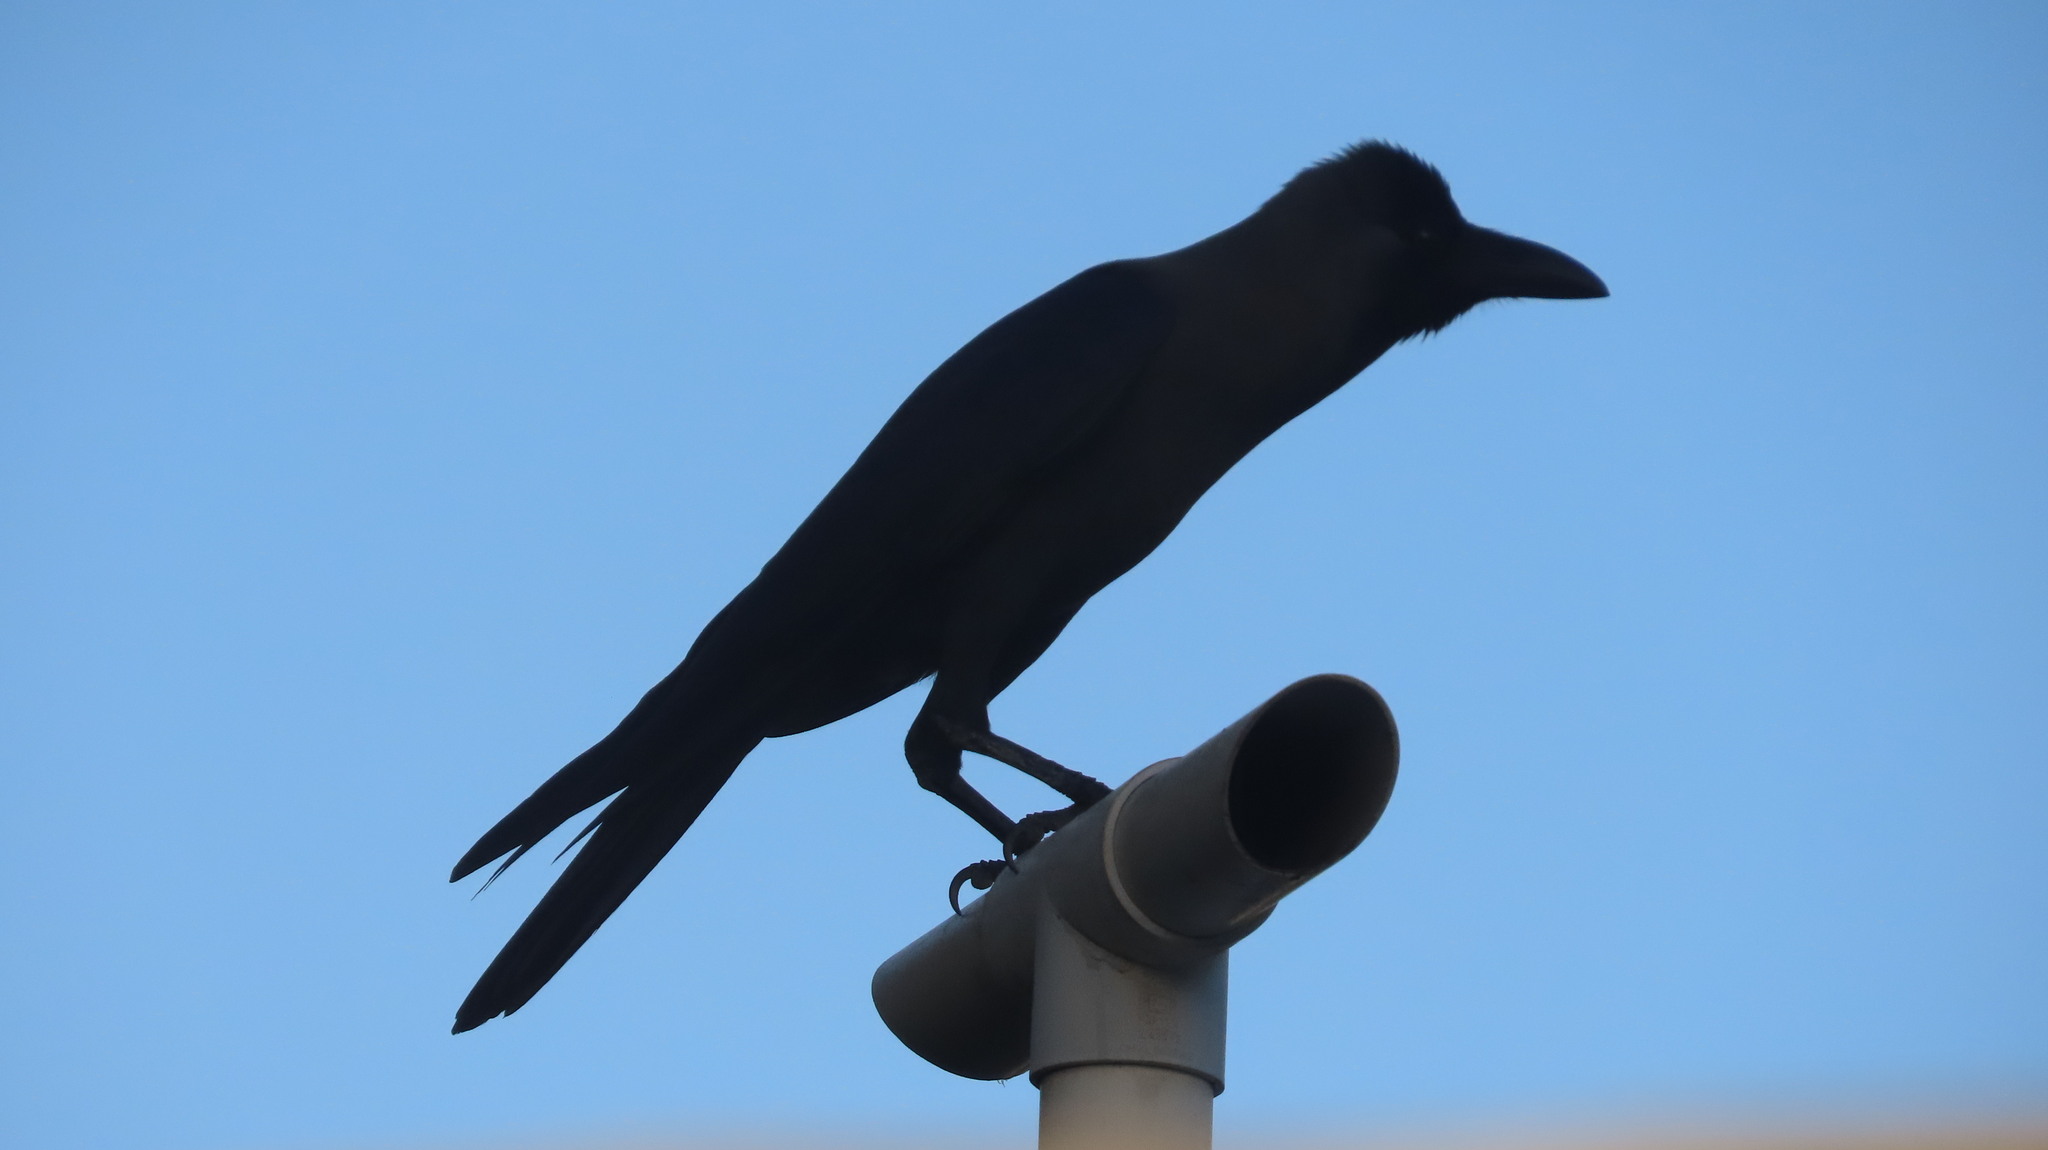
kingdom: Animalia
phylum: Chordata
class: Aves
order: Passeriformes
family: Corvidae
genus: Corvus
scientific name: Corvus splendens
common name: House crow
